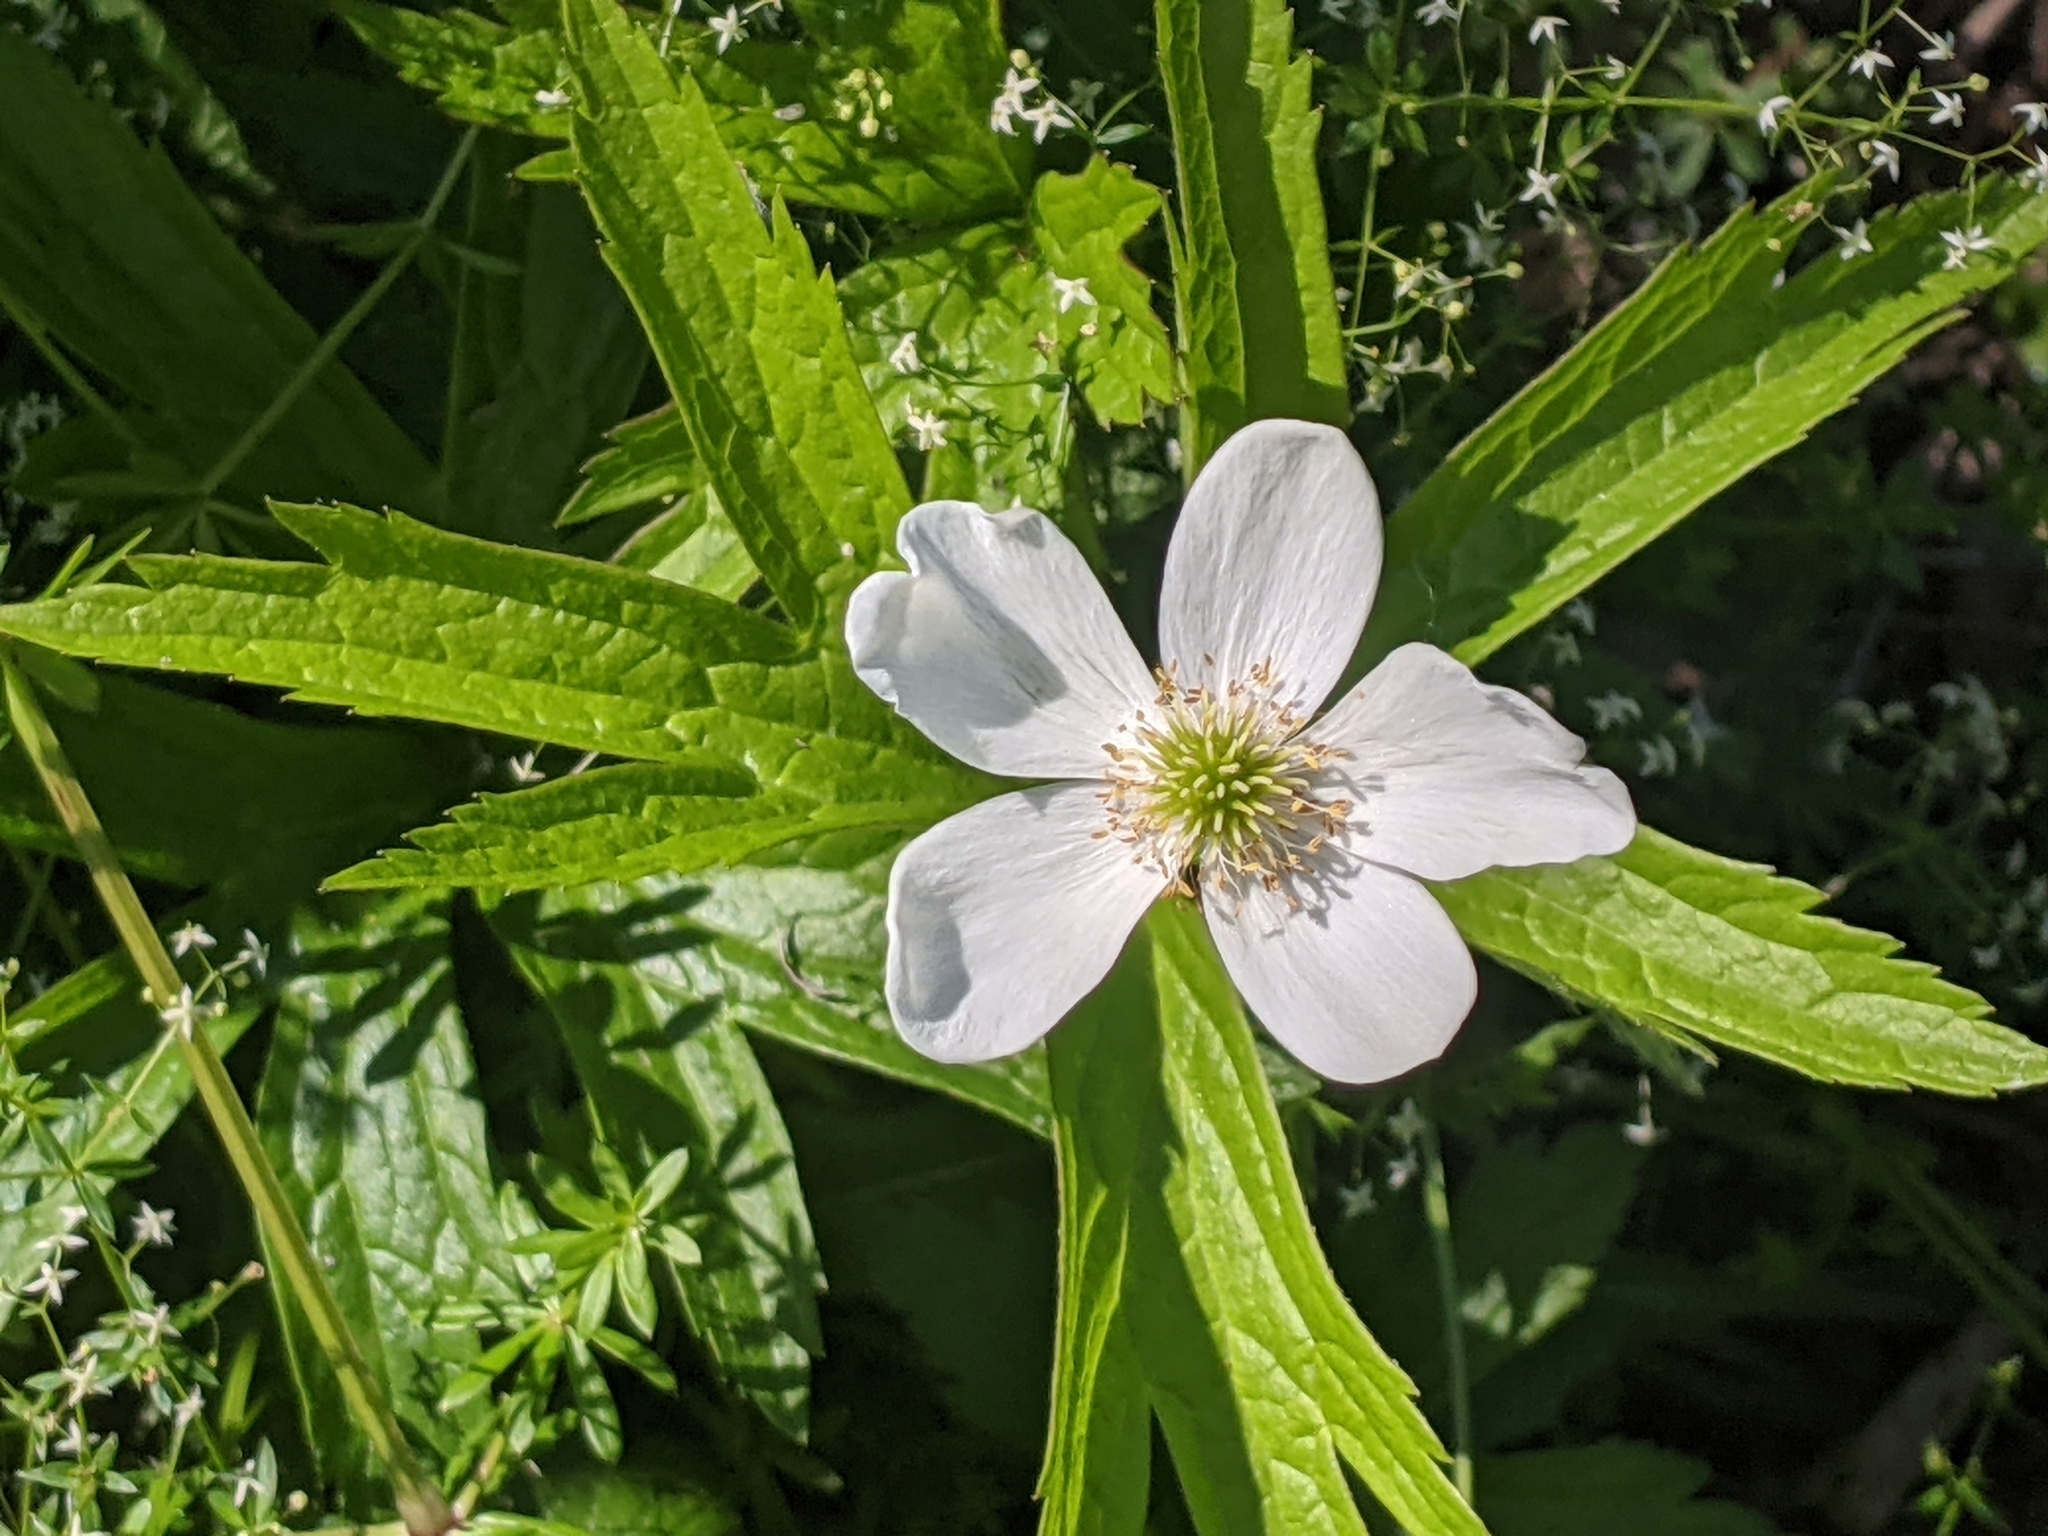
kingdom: Plantae
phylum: Tracheophyta
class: Magnoliopsida
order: Ranunculales
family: Ranunculaceae
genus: Anemonastrum
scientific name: Anemonastrum canadense
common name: Canada anemone
